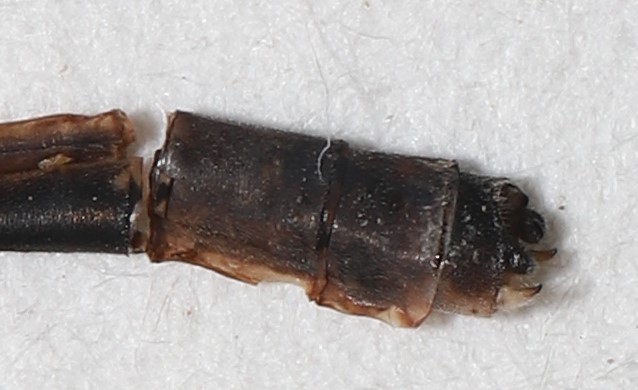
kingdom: Animalia
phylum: Arthropoda
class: Insecta
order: Odonata
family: Coenagrionidae
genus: Enallagma
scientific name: Enallagma boreale
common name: Boreal bluet
